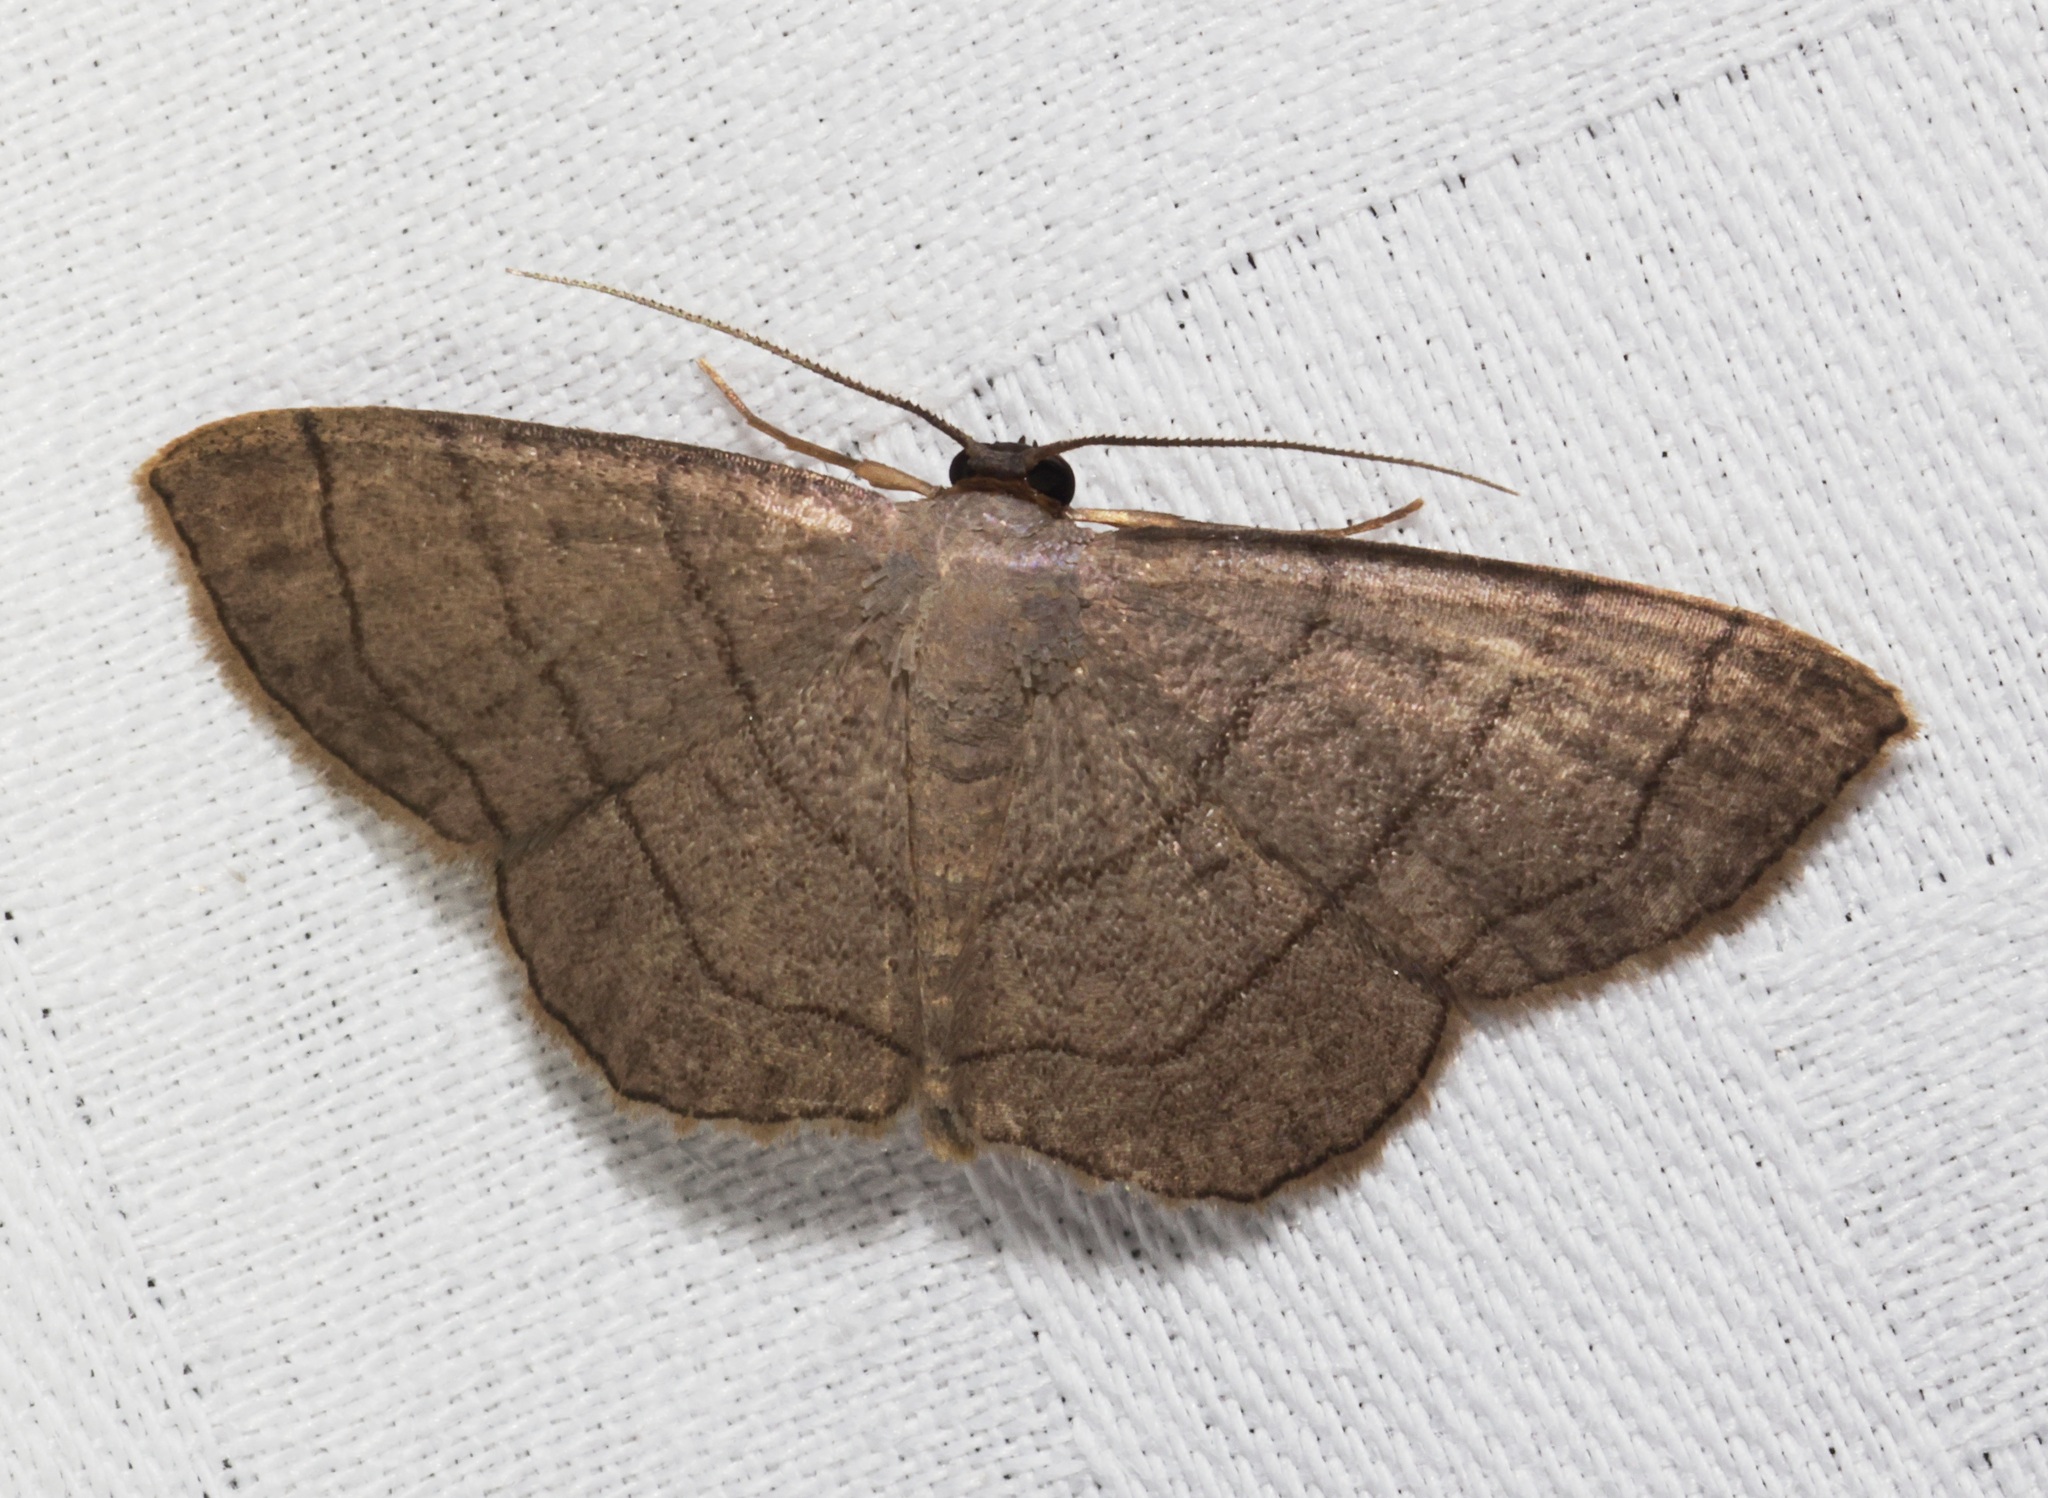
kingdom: Animalia
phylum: Arthropoda
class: Insecta
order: Lepidoptera
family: Geometridae
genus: Scopula
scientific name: Scopula mecysma
